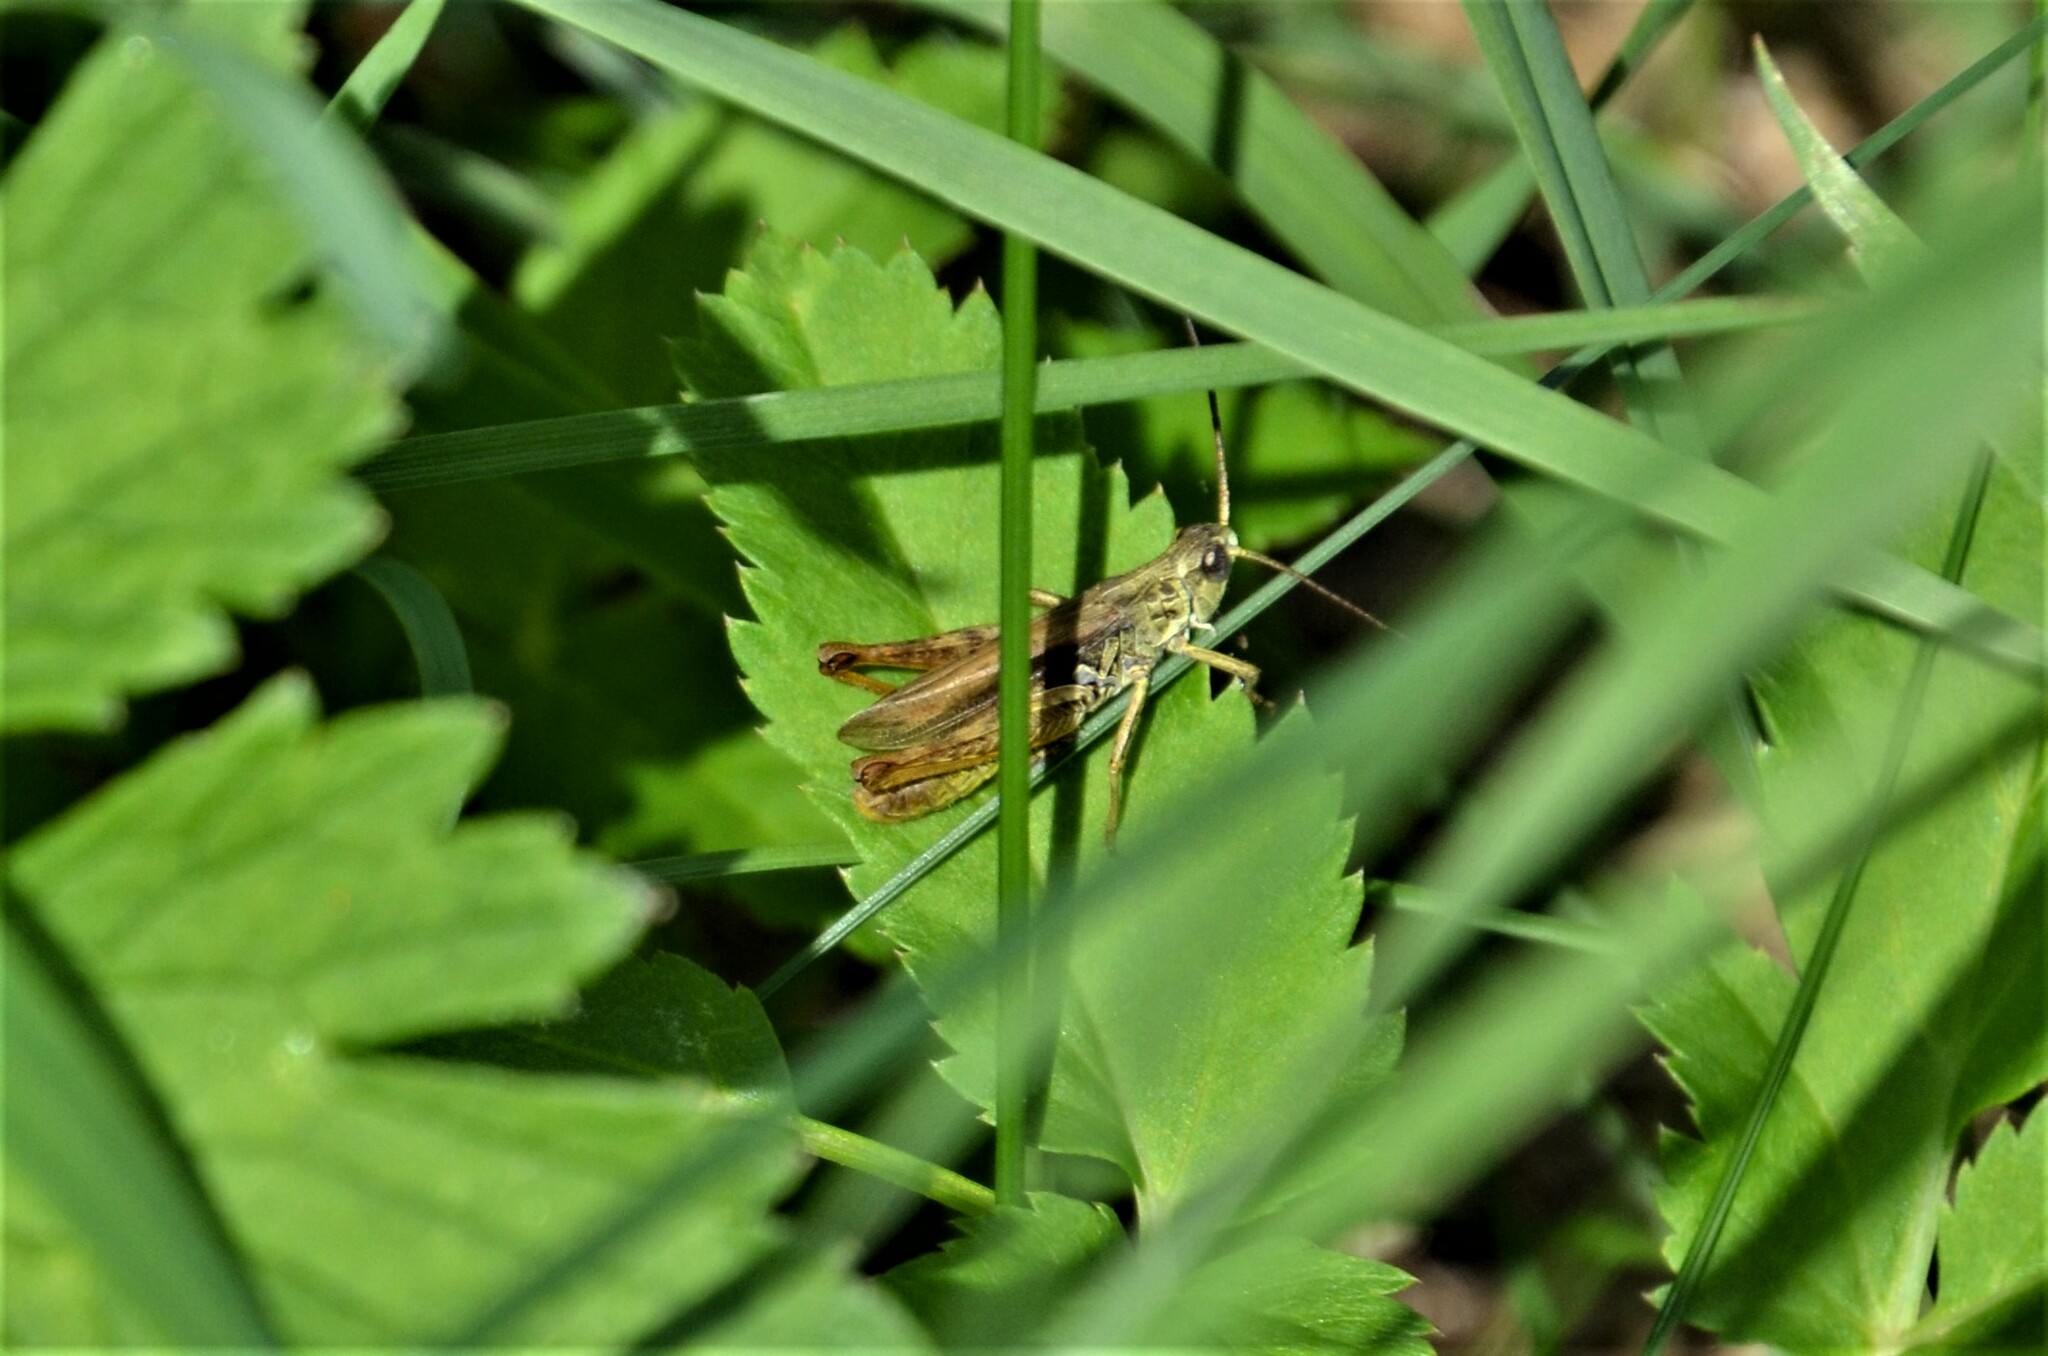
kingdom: Animalia
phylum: Arthropoda
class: Insecta
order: Orthoptera
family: Acrididae
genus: Chorthippus
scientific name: Chorthippus apricarius
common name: Upland field grasshopper
